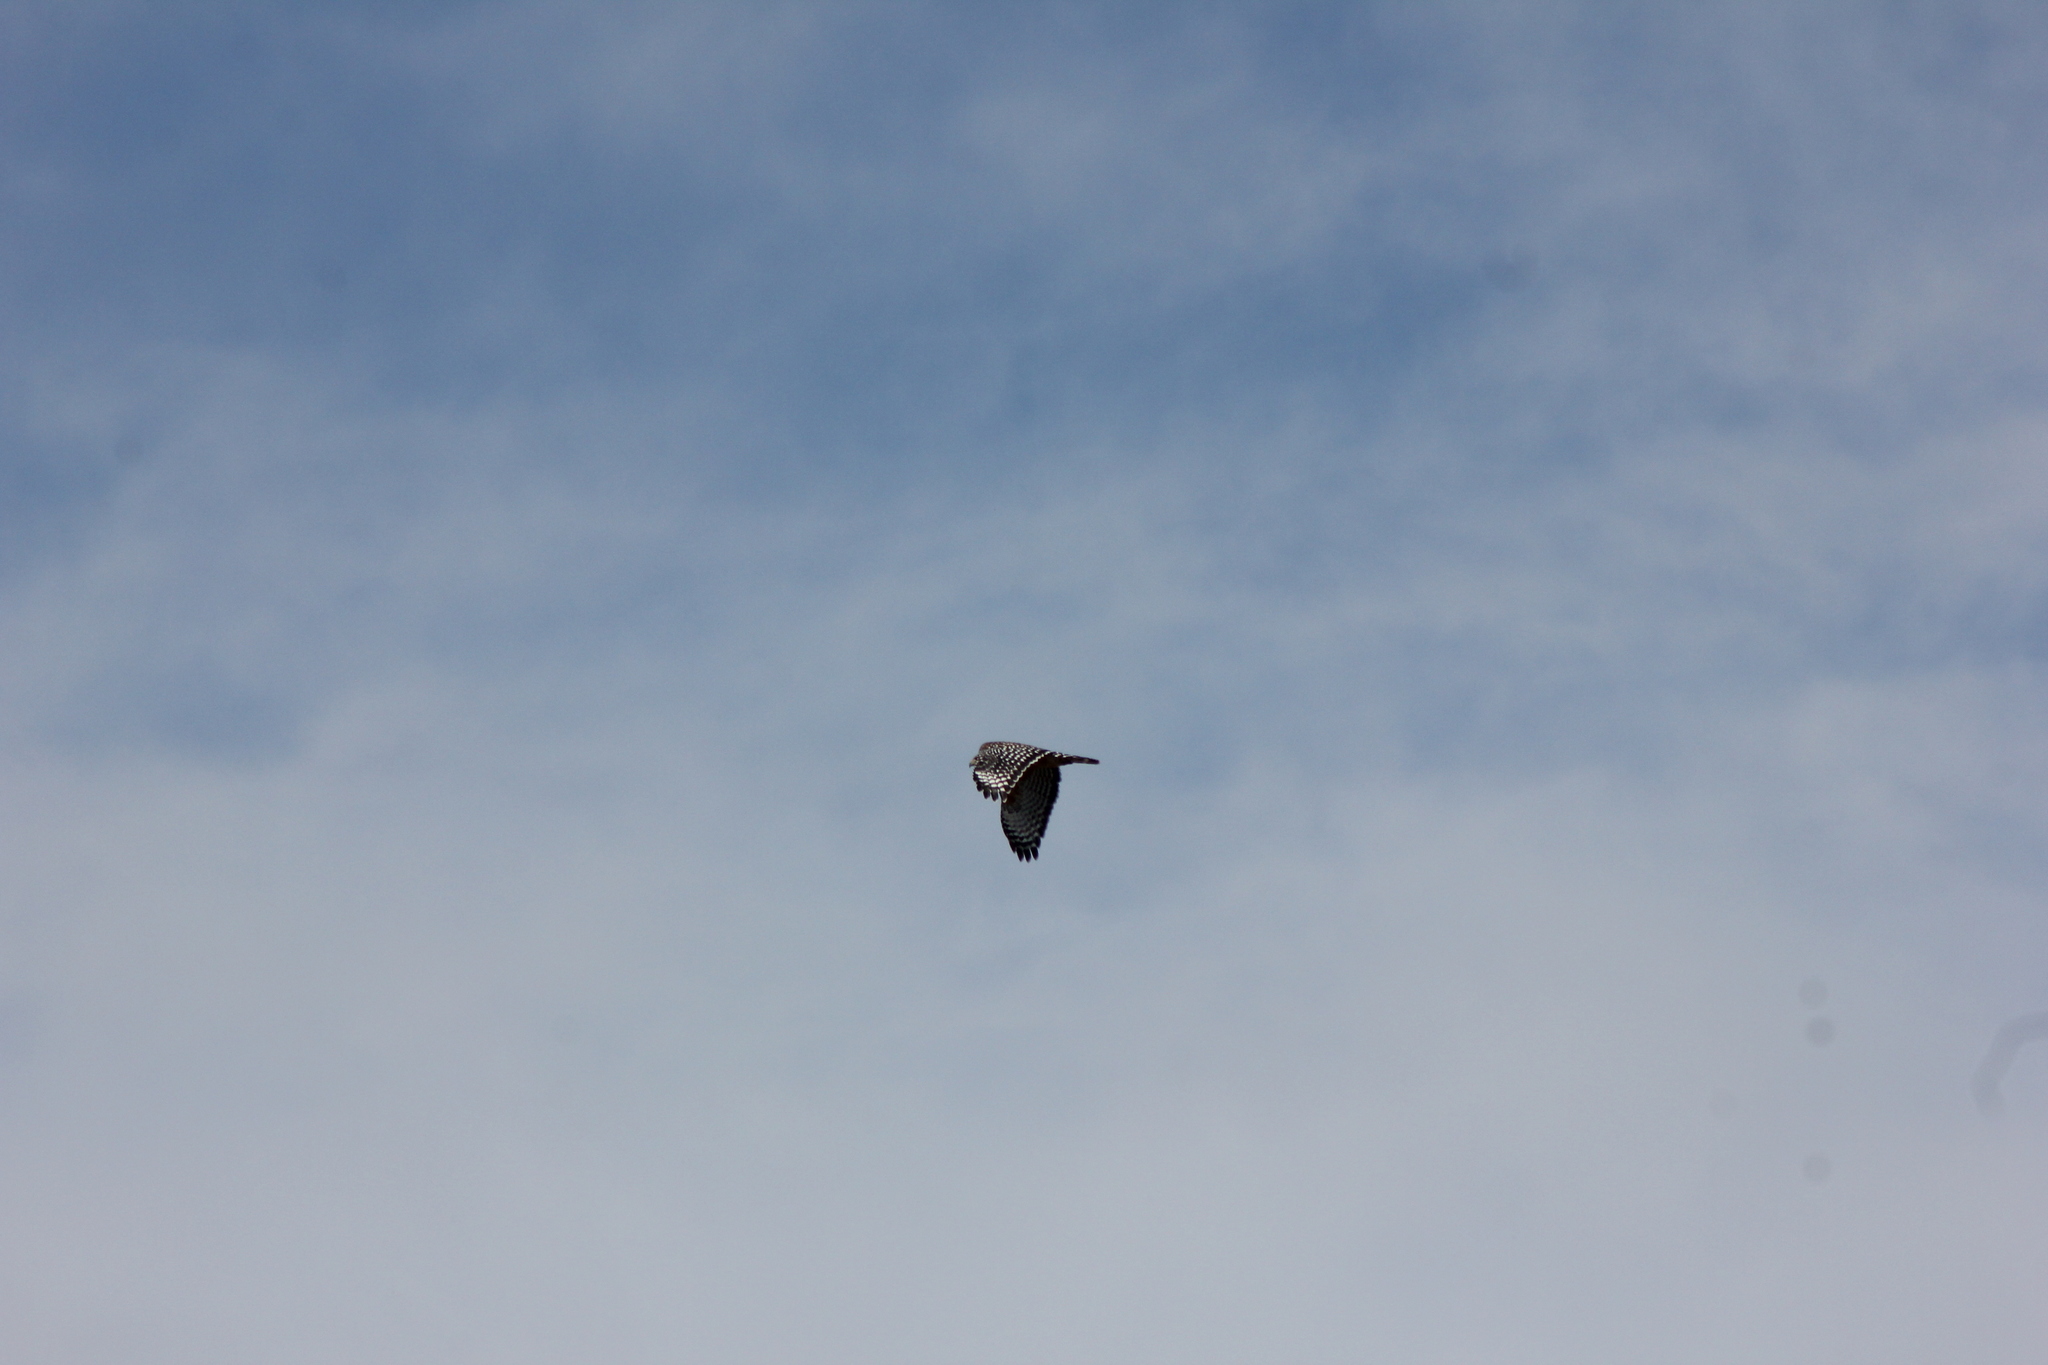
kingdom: Animalia
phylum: Chordata
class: Aves
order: Accipitriformes
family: Accipitridae
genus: Buteo
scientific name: Buteo lineatus
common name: Red-shouldered hawk
